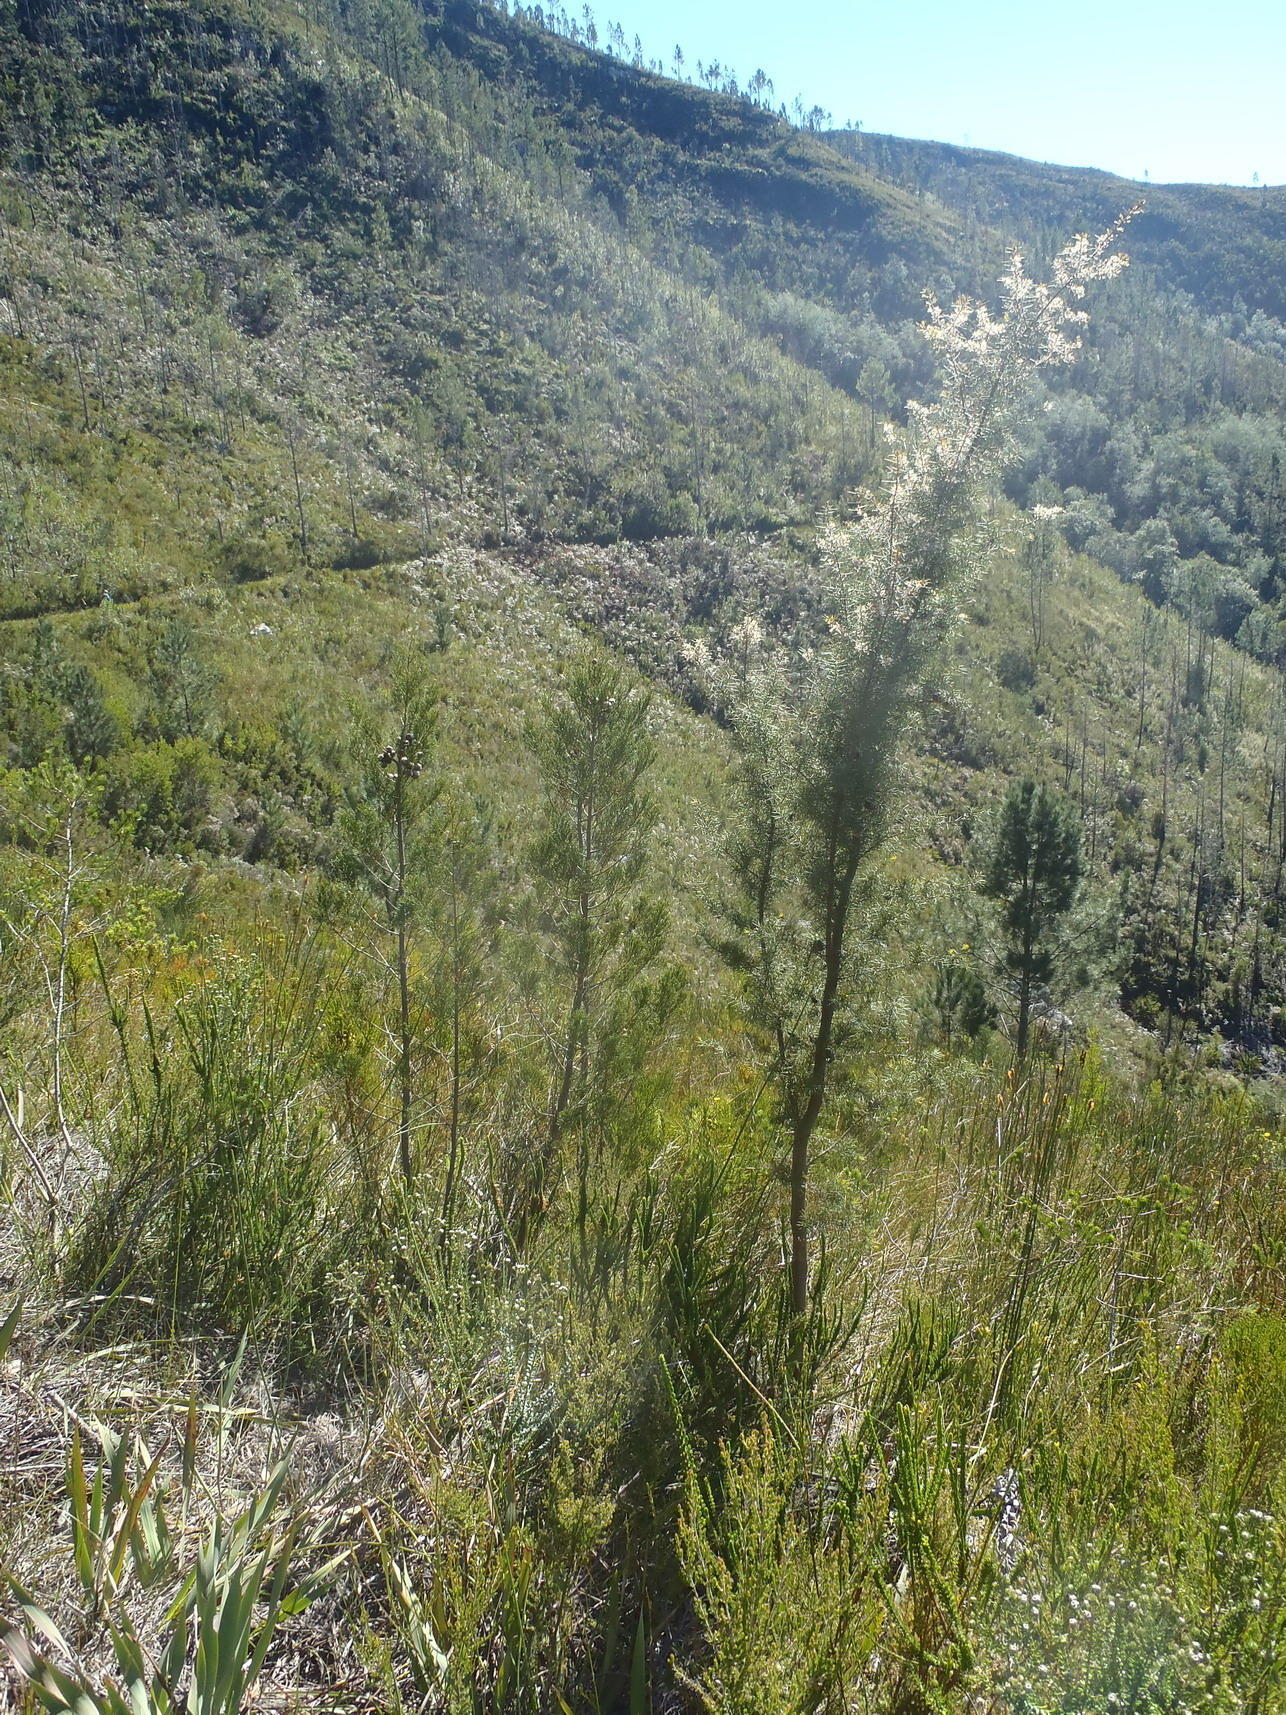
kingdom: Plantae
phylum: Tracheophyta
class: Magnoliopsida
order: Proteales
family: Proteaceae
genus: Hakea
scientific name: Hakea sericea
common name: Needle bush
